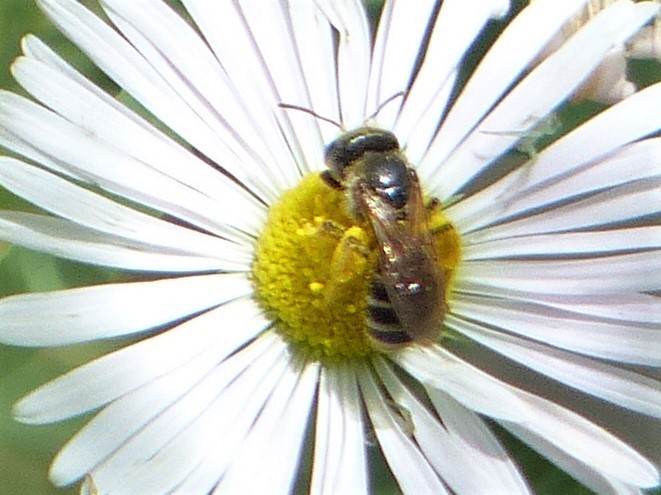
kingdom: Animalia
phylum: Arthropoda
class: Insecta
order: Hymenoptera
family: Halictidae
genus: Halictus
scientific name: Halictus ligatus
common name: Ligated furrow bee
